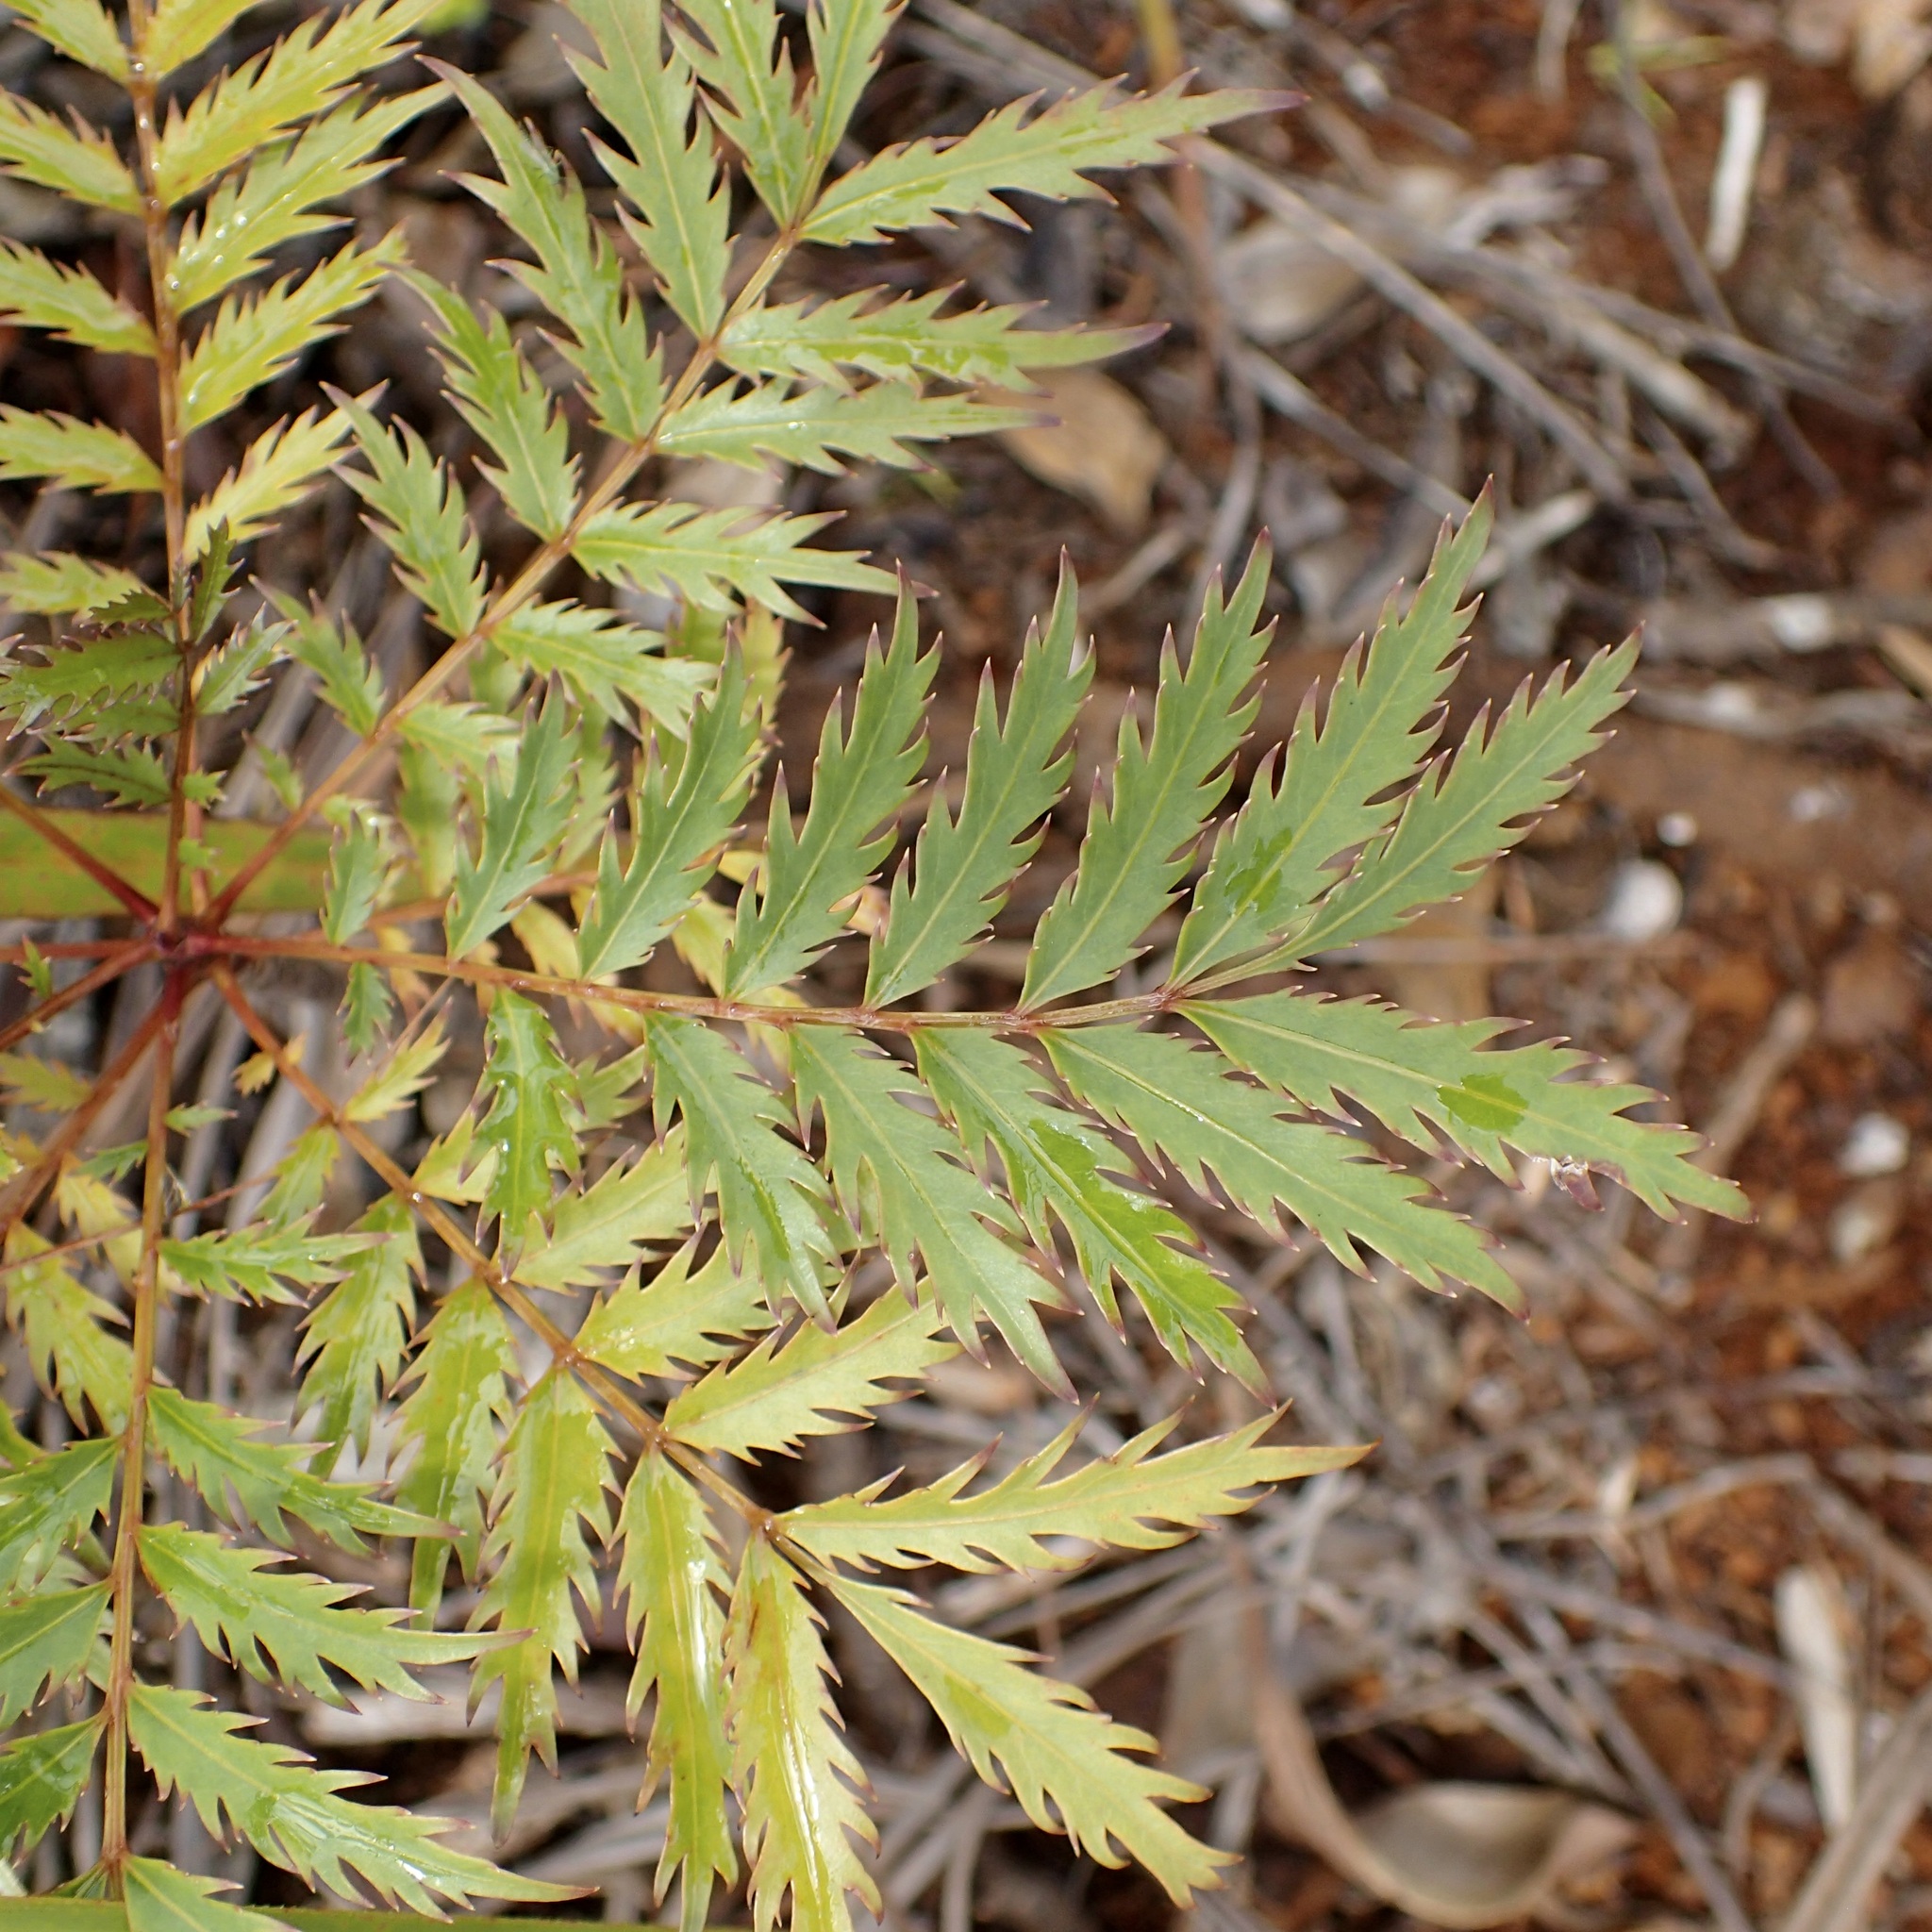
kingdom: Plantae
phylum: Tracheophyta
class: Magnoliopsida
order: Apiales
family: Myodocarpaceae
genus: Myodocarpus
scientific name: Myodocarpus fraxinifolius
